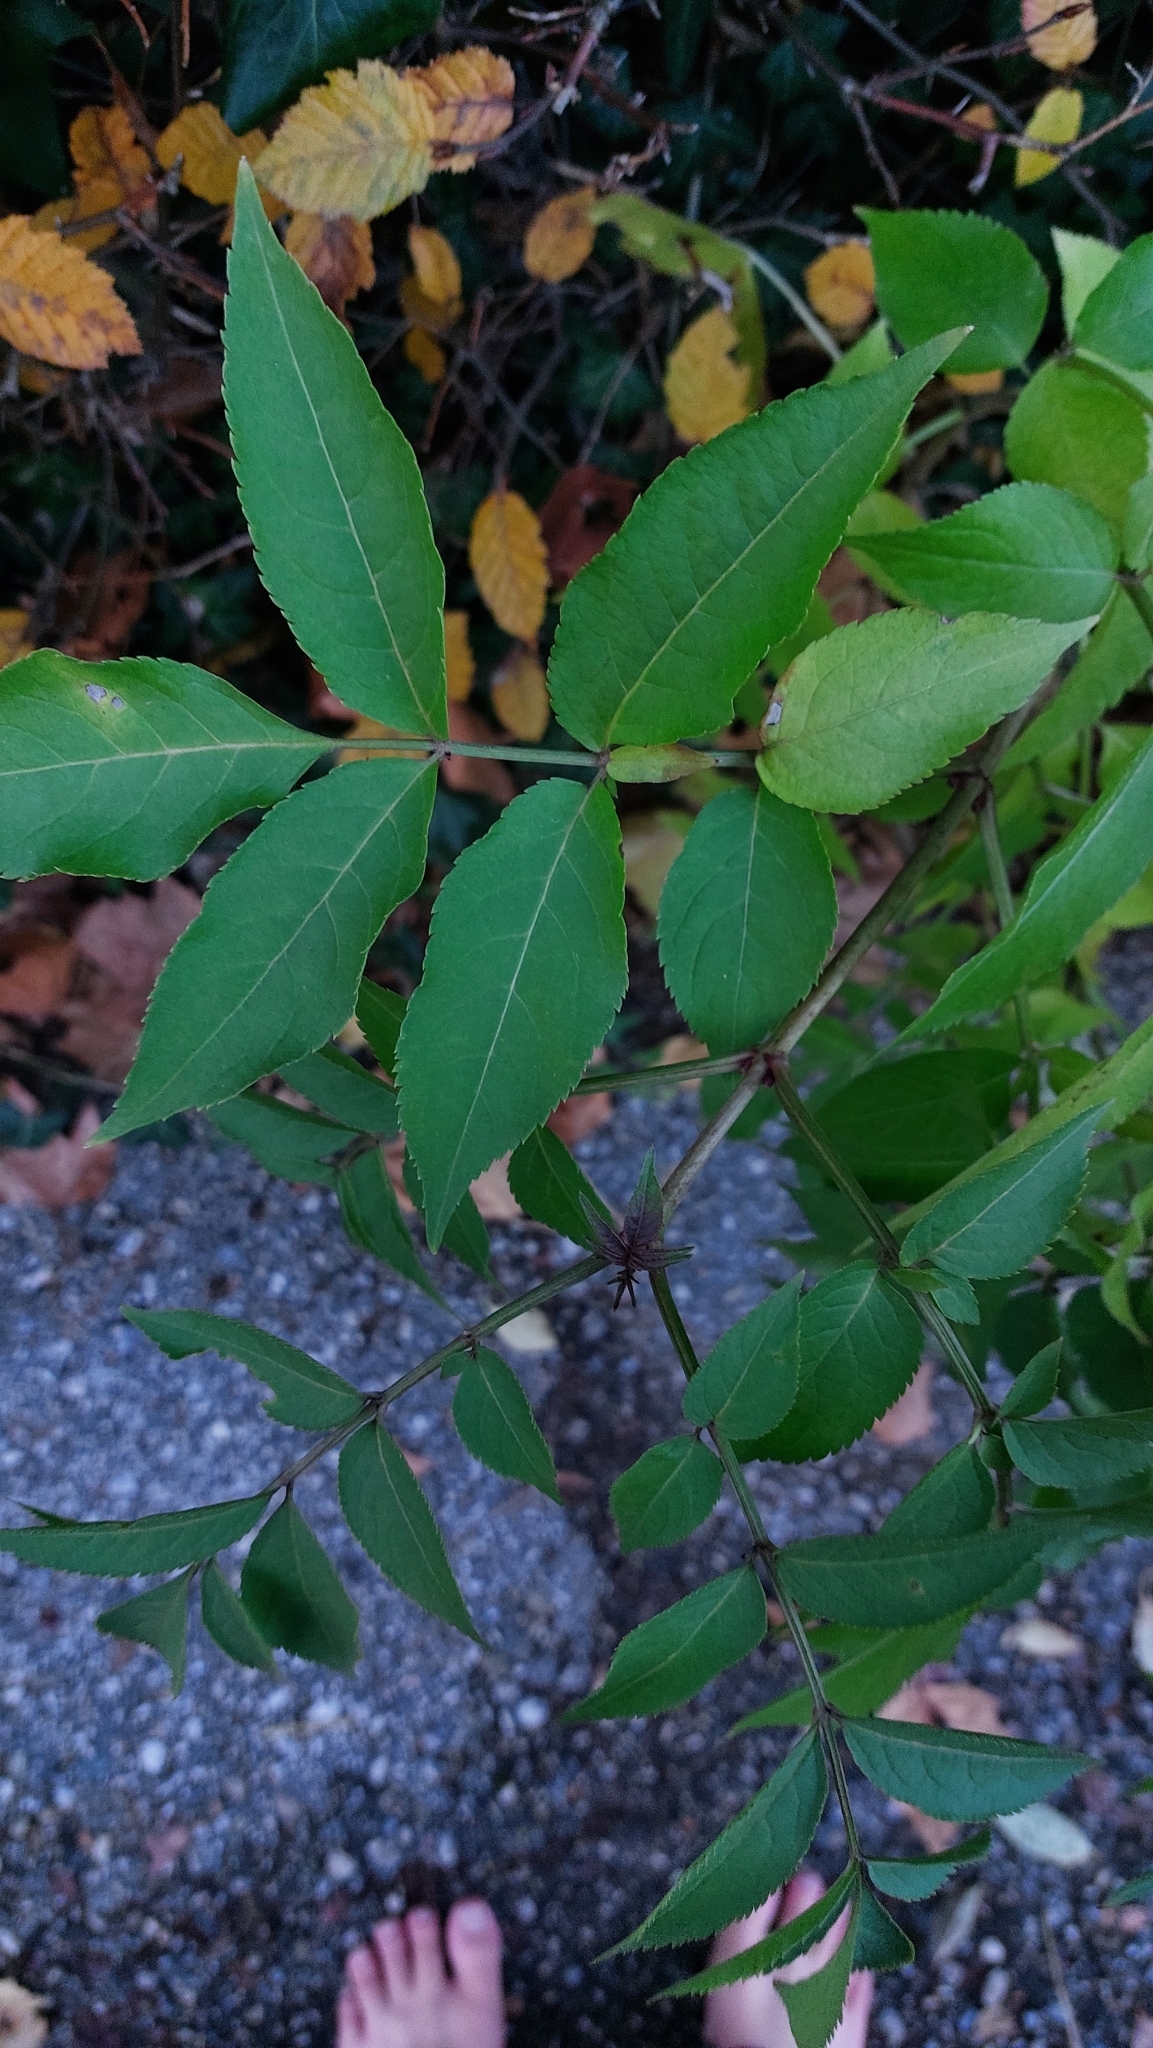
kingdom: Plantae
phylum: Tracheophyta
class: Magnoliopsida
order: Dipsacales
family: Viburnaceae
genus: Sambucus
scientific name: Sambucus nigra
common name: Elder
